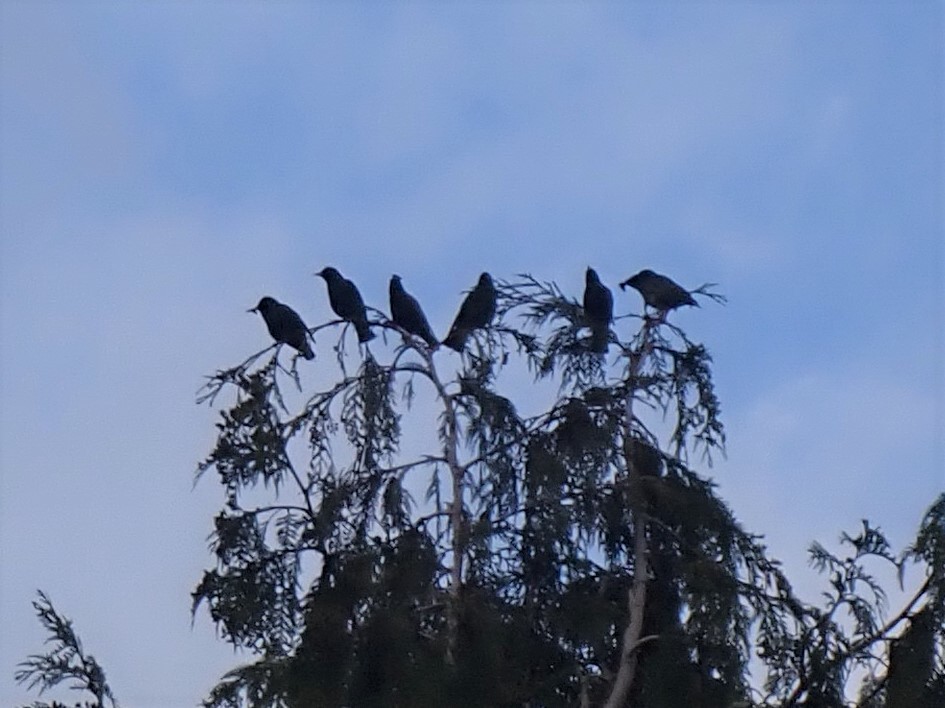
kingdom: Animalia
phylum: Chordata
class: Aves
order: Passeriformes
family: Sturnidae
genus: Sturnus
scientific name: Sturnus vulgaris
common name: Common starling
